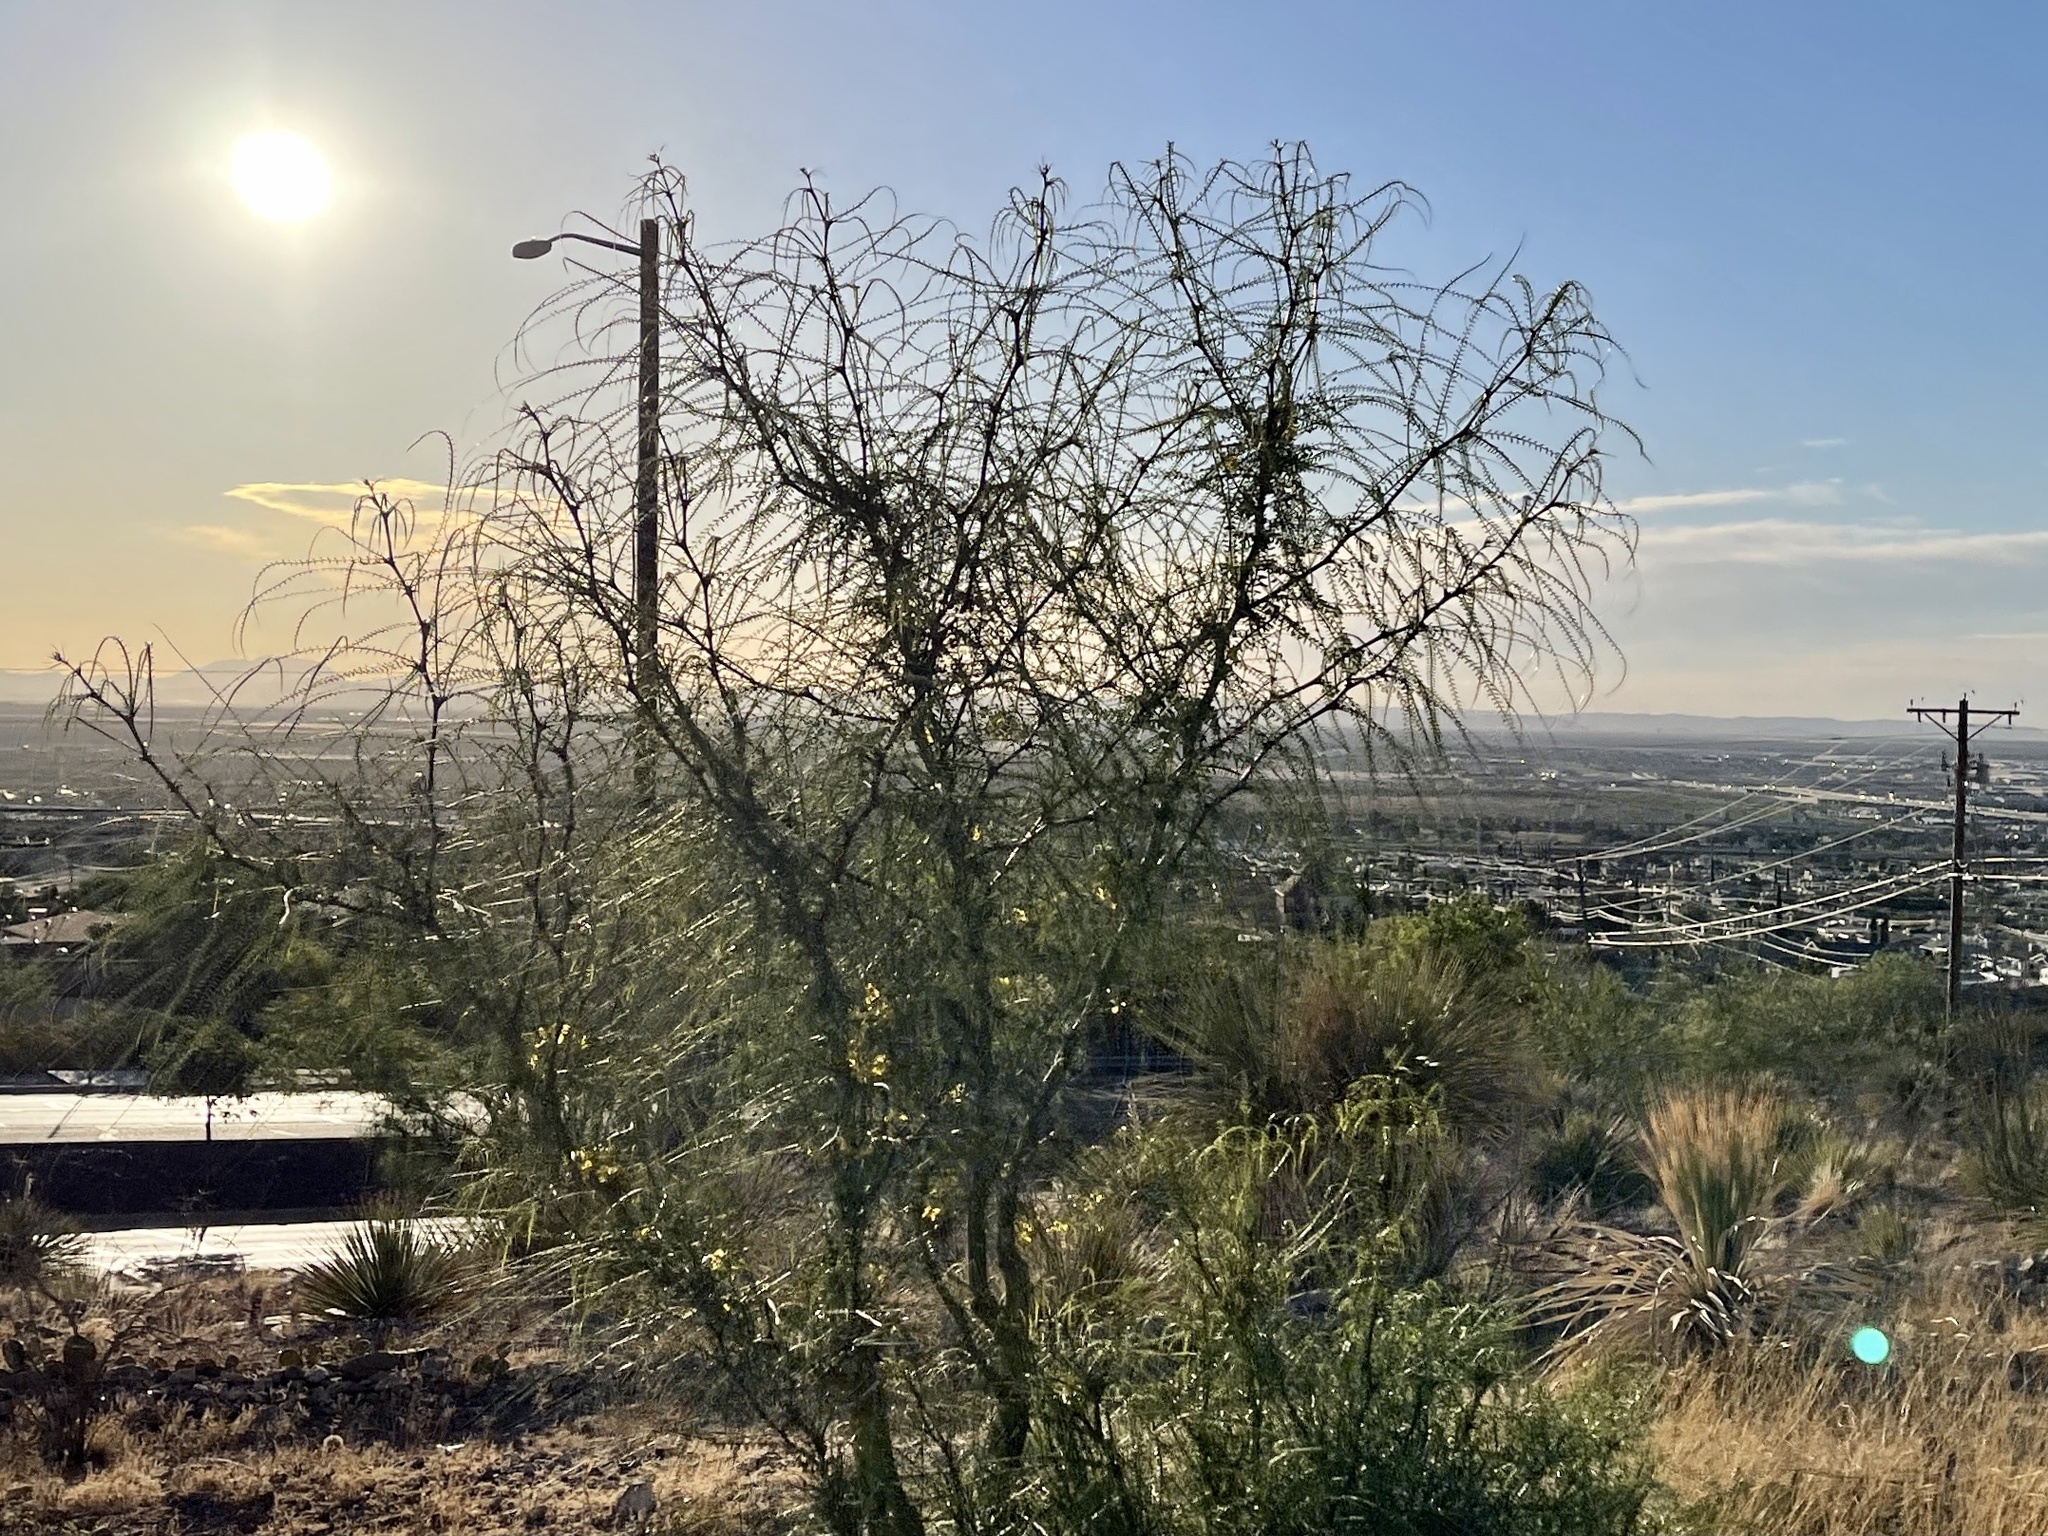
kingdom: Plantae
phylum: Tracheophyta
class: Magnoliopsida
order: Fabales
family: Fabaceae
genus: Parkinsonia
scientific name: Parkinsonia aculeata
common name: Jerusalem thorn
